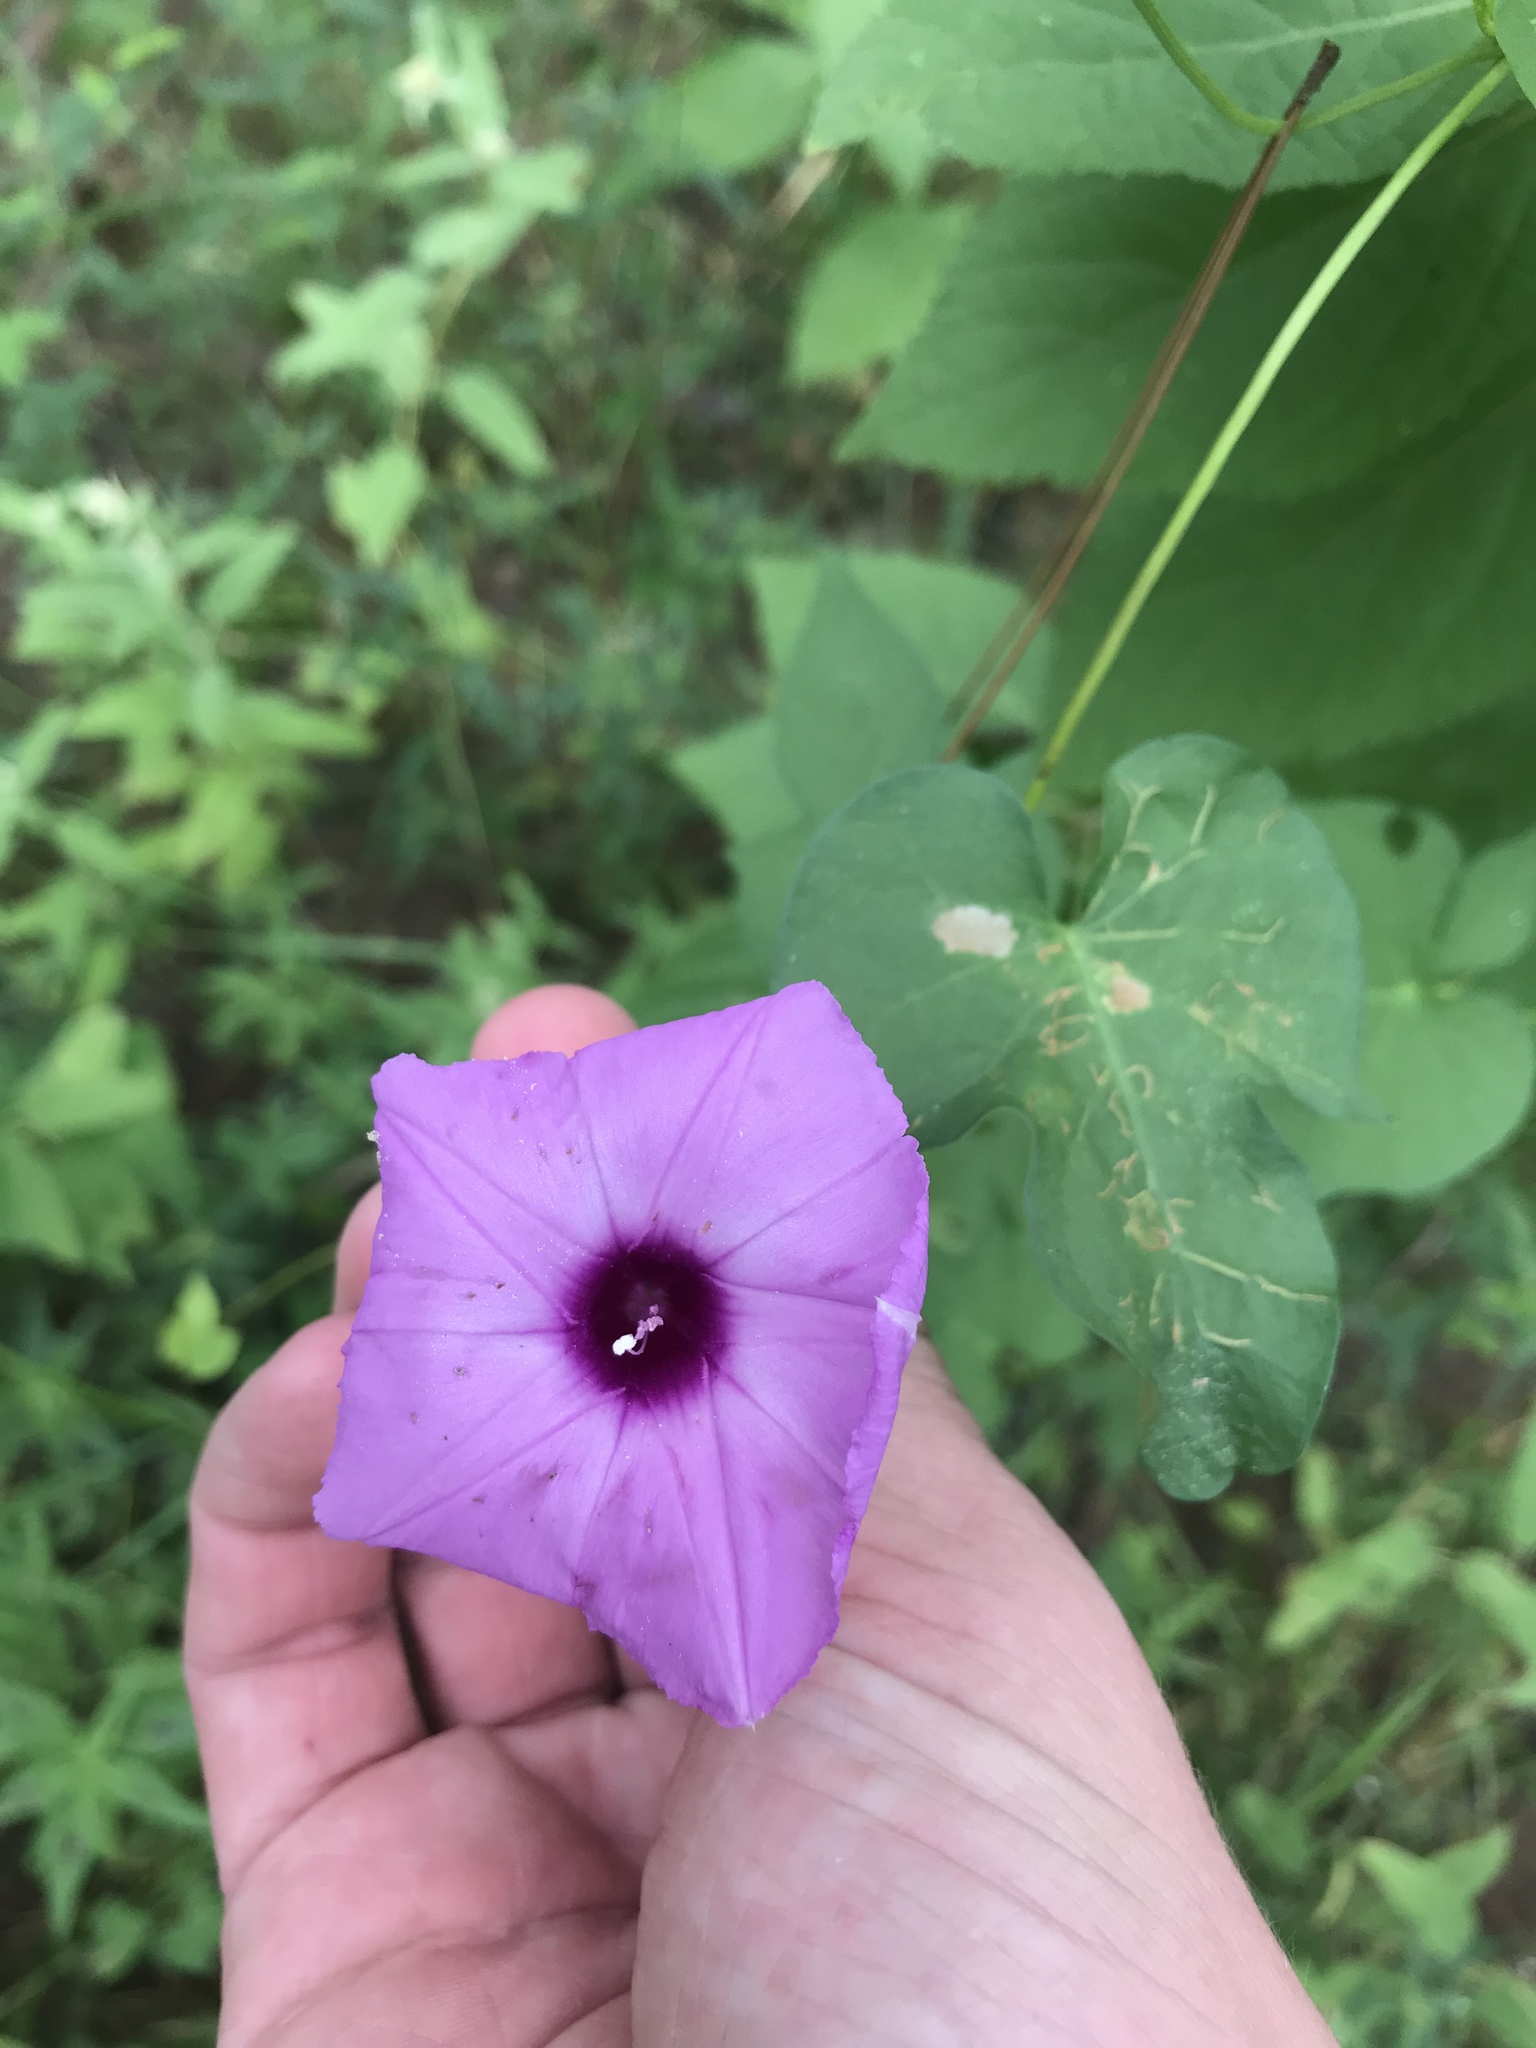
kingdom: Plantae
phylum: Tracheophyta
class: Magnoliopsida
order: Solanales
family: Convolvulaceae
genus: Ipomoea
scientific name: Ipomoea cordatotriloba
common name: Cotton morning glory
